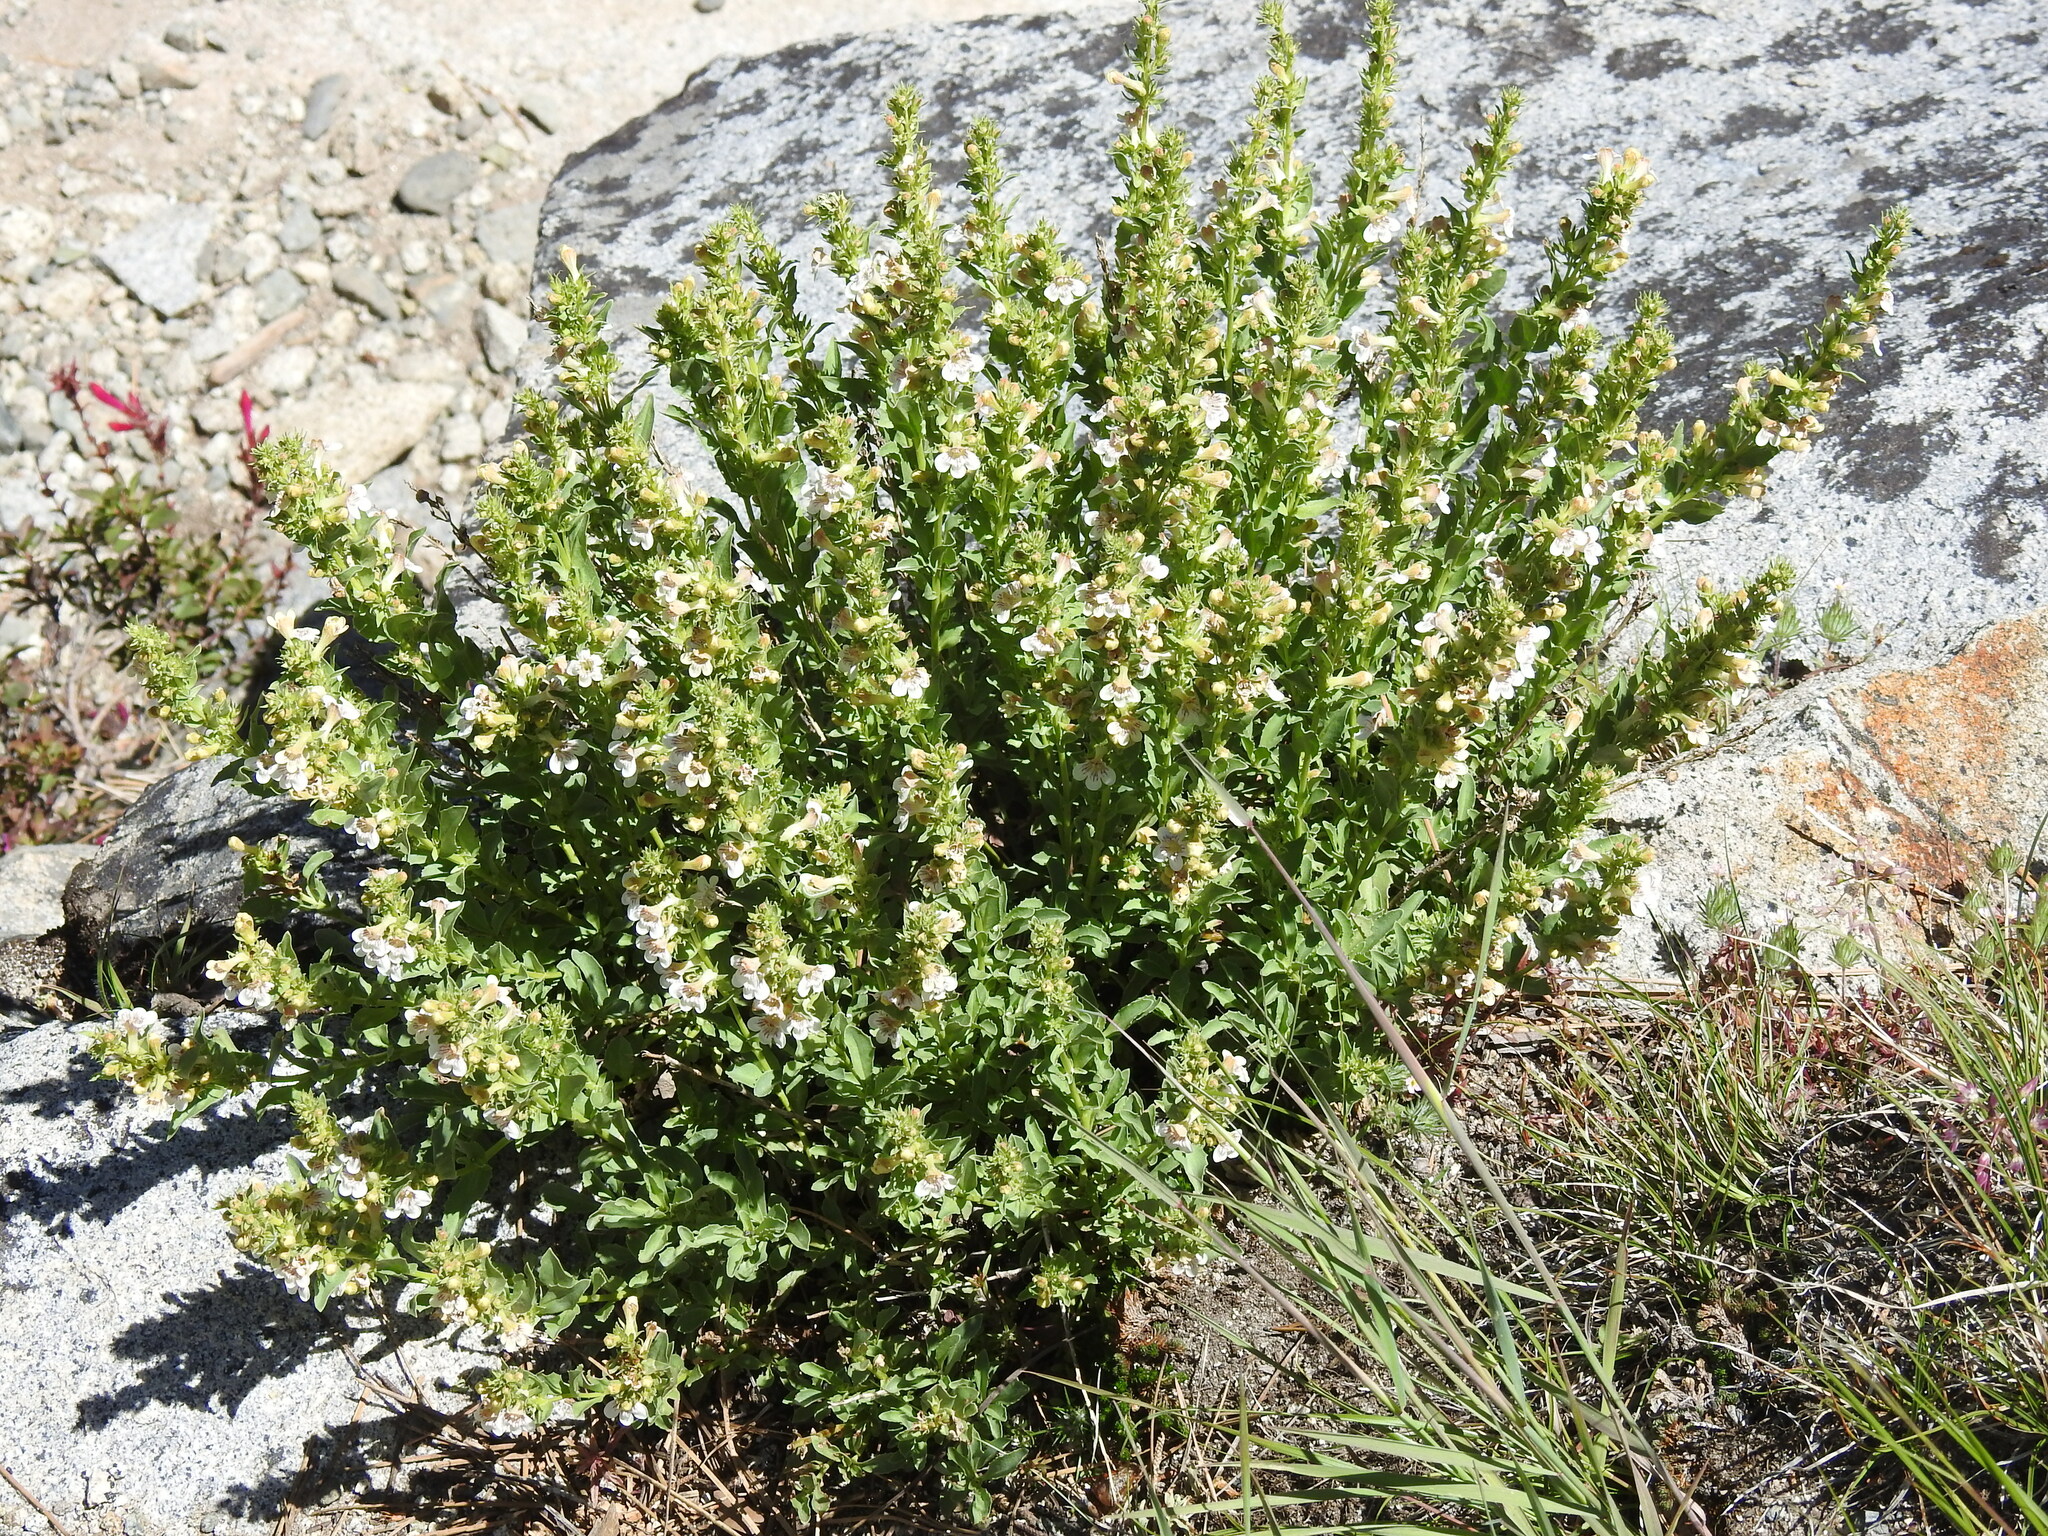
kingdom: Plantae
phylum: Tracheophyta
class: Magnoliopsida
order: Lamiales
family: Plantaginaceae
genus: Penstemon
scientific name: Penstemon deustus
